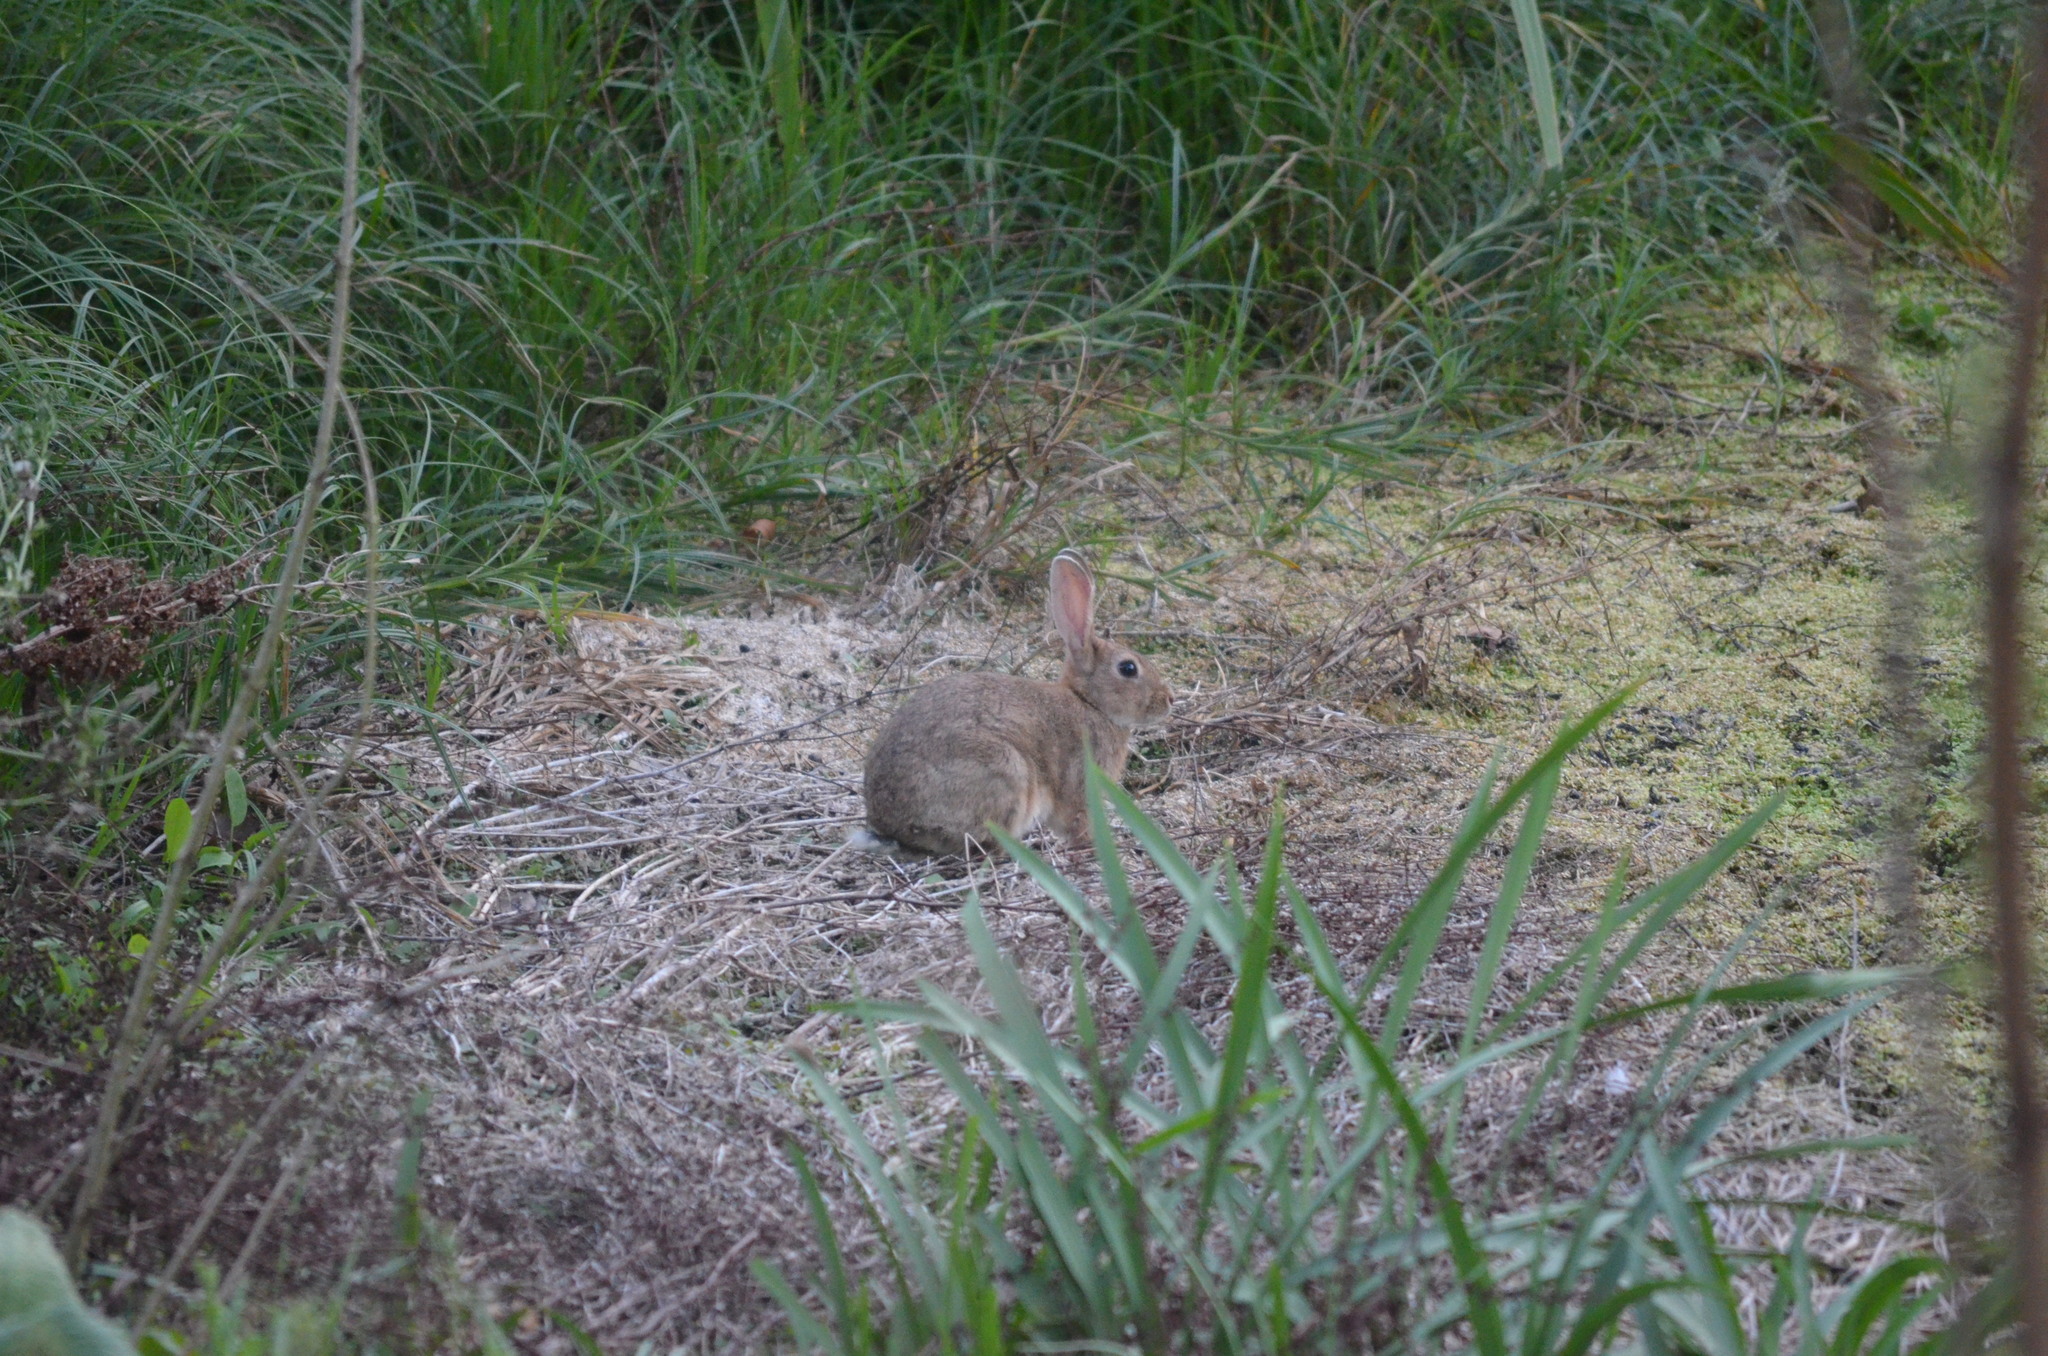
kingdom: Animalia
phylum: Chordata
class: Mammalia
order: Lagomorpha
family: Leporidae
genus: Oryctolagus
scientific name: Oryctolagus cuniculus
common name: European rabbit
